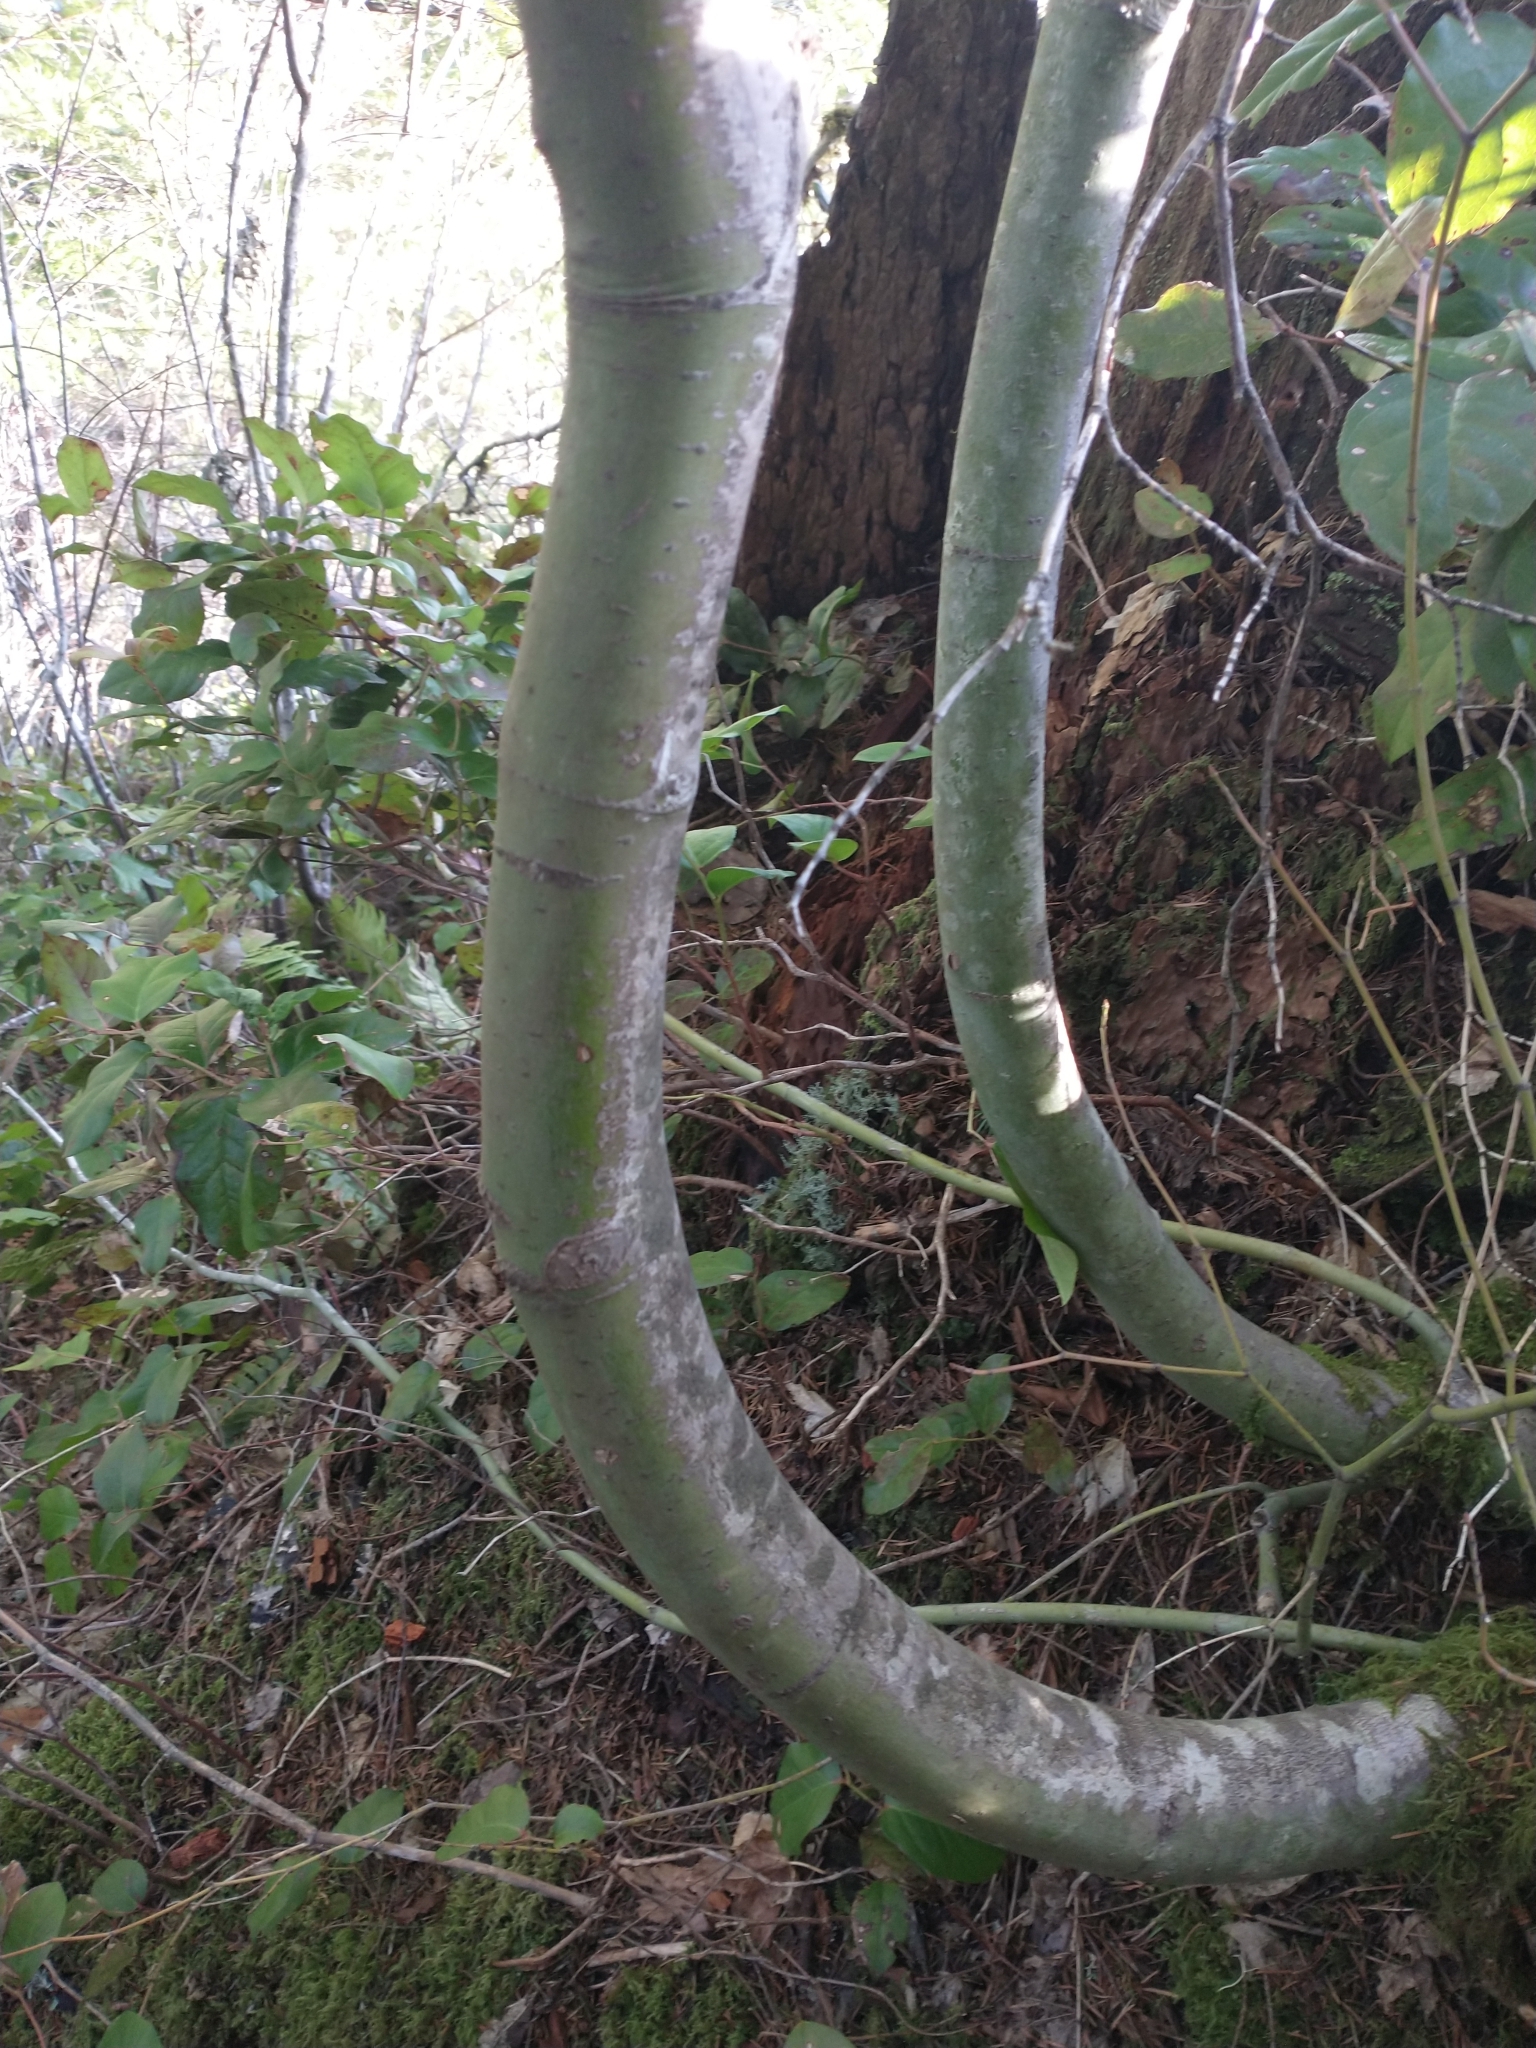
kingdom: Plantae
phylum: Tracheophyta
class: Magnoliopsida
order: Sapindales
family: Sapindaceae
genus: Acer
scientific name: Acer circinatum
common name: Vine maple
